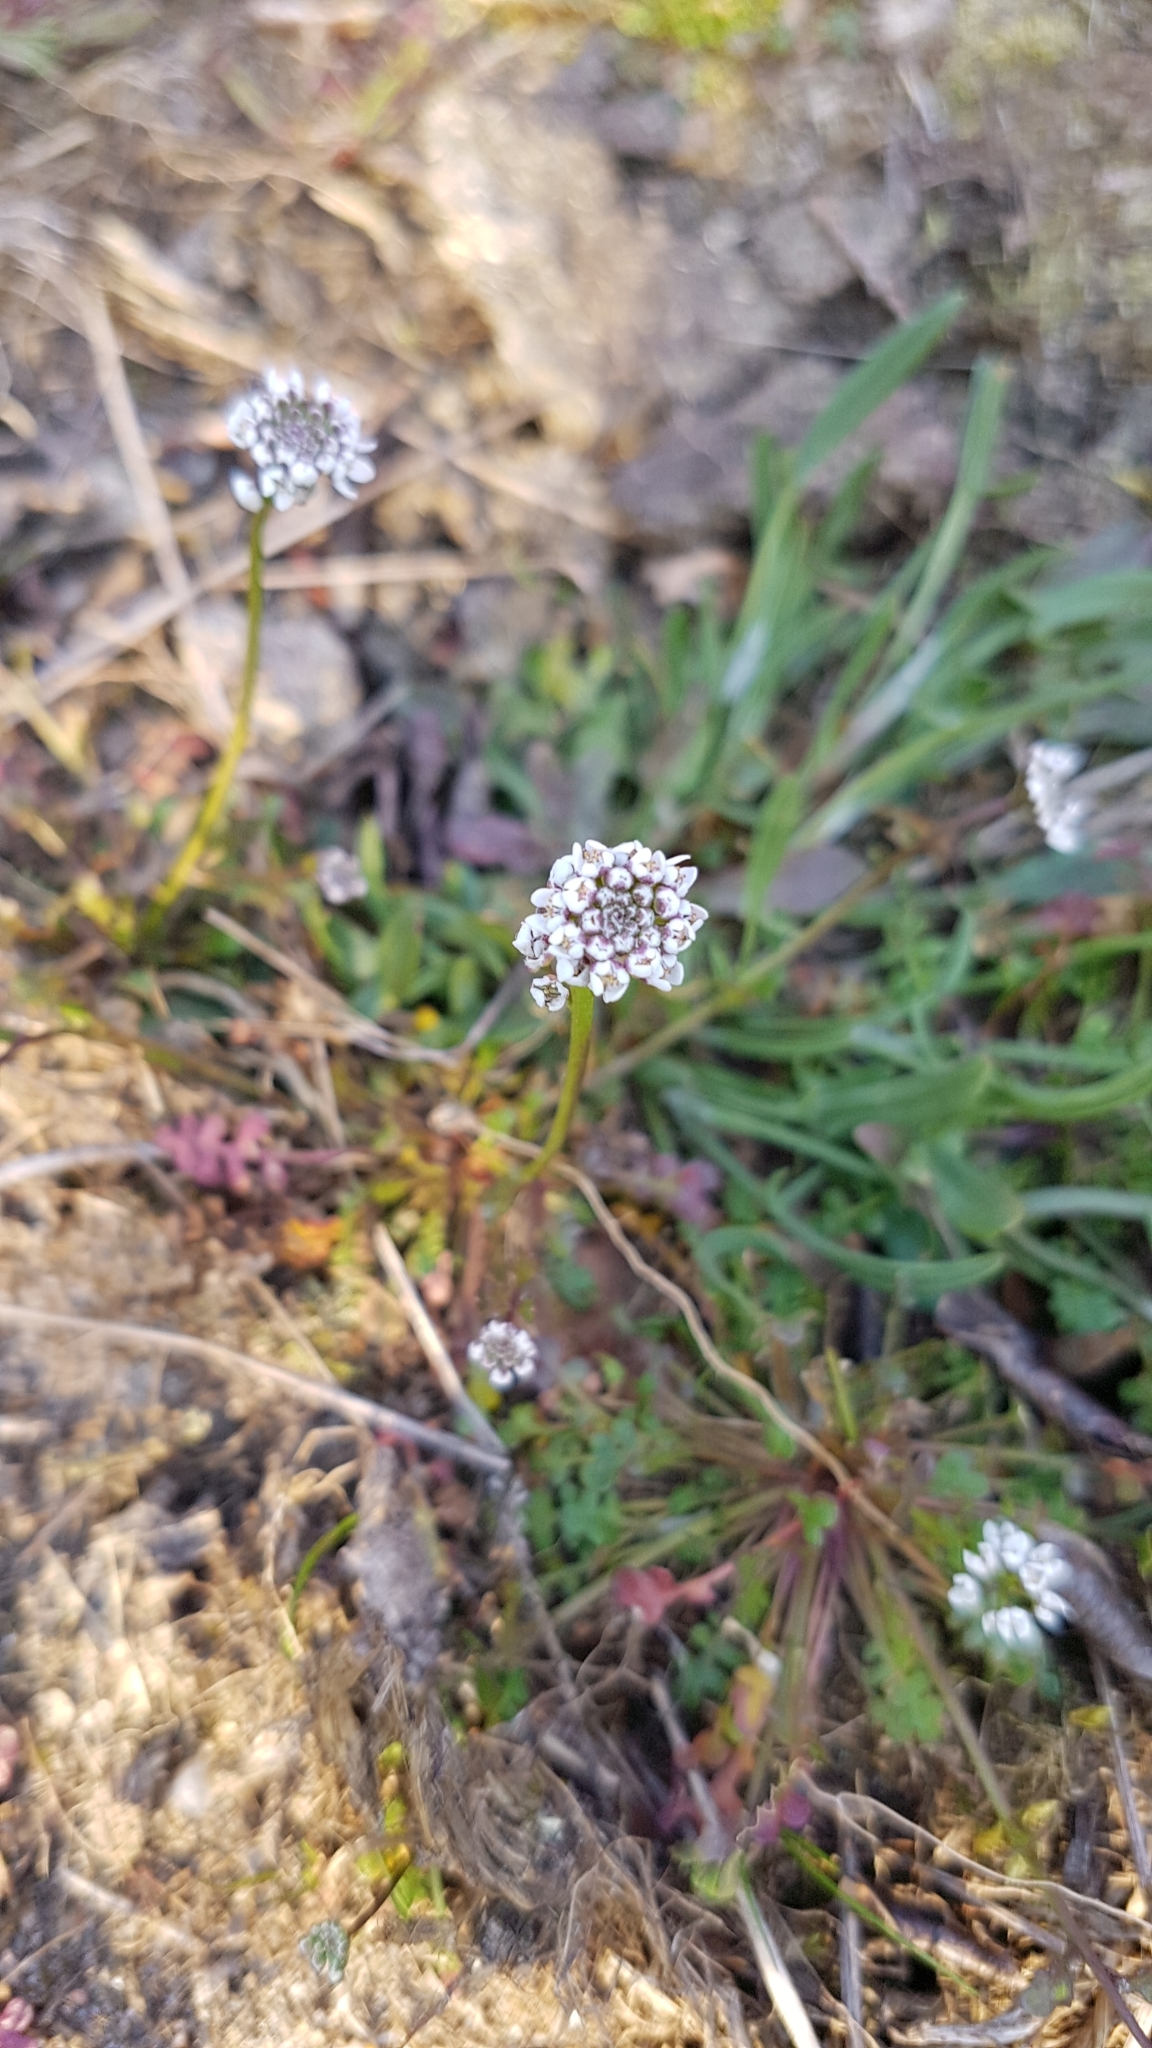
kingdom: Plantae
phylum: Tracheophyta
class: Magnoliopsida
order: Brassicales
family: Brassicaceae
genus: Teesdalia
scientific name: Teesdalia nudicaulis
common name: Shepherd's cress
